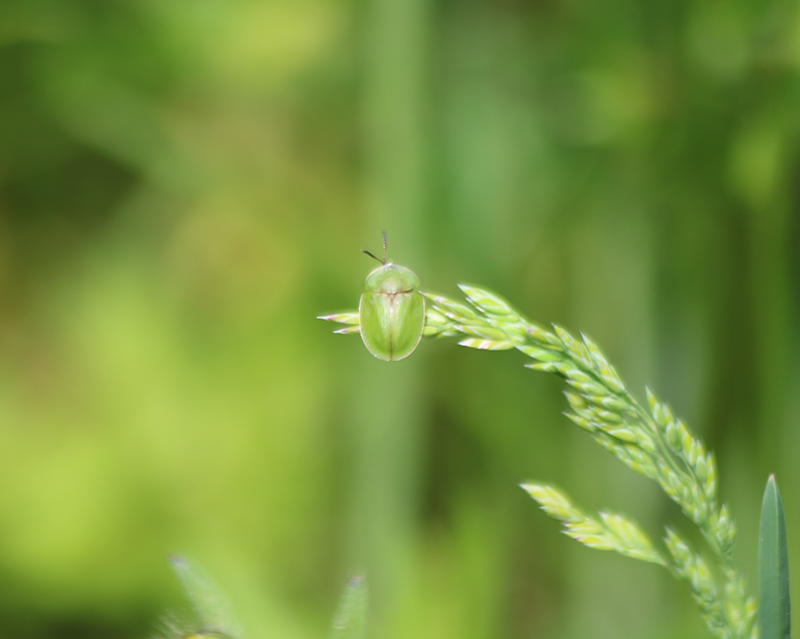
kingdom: Animalia
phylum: Arthropoda
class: Insecta
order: Coleoptera
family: Chrysomelidae
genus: Cassida
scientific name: Cassida rubiginosa
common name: Thistle tortoise beetle
